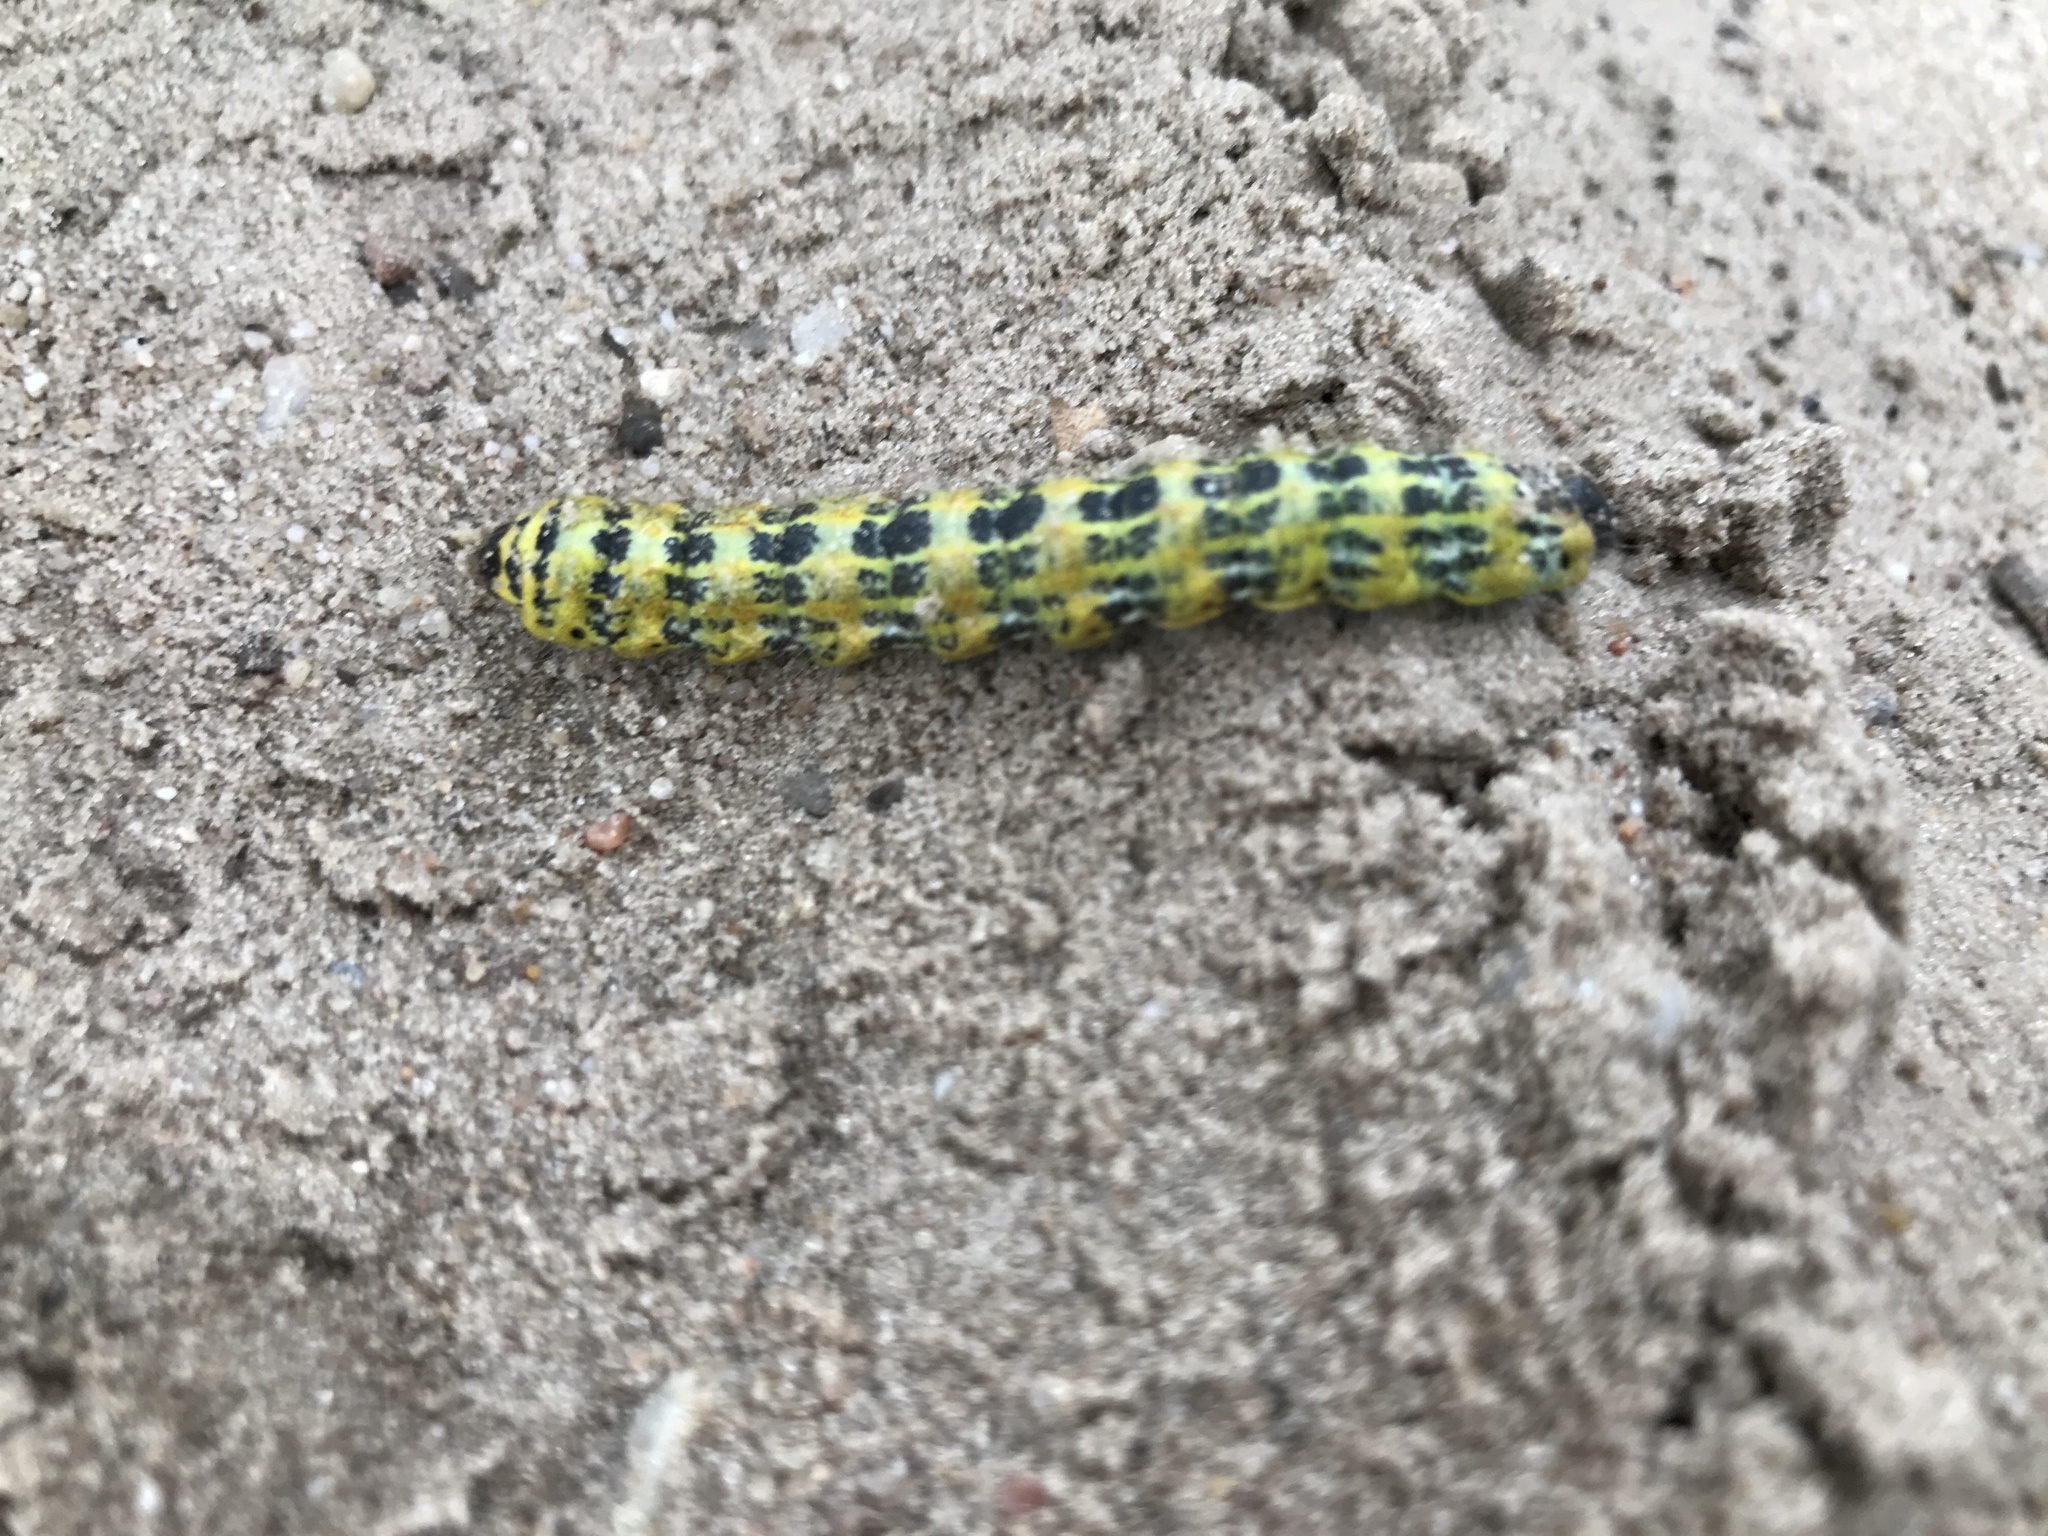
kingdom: Animalia
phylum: Arthropoda
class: Insecta
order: Lepidoptera
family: Notodontidae
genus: Phalera
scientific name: Phalera bucephala
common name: Buff-tip
